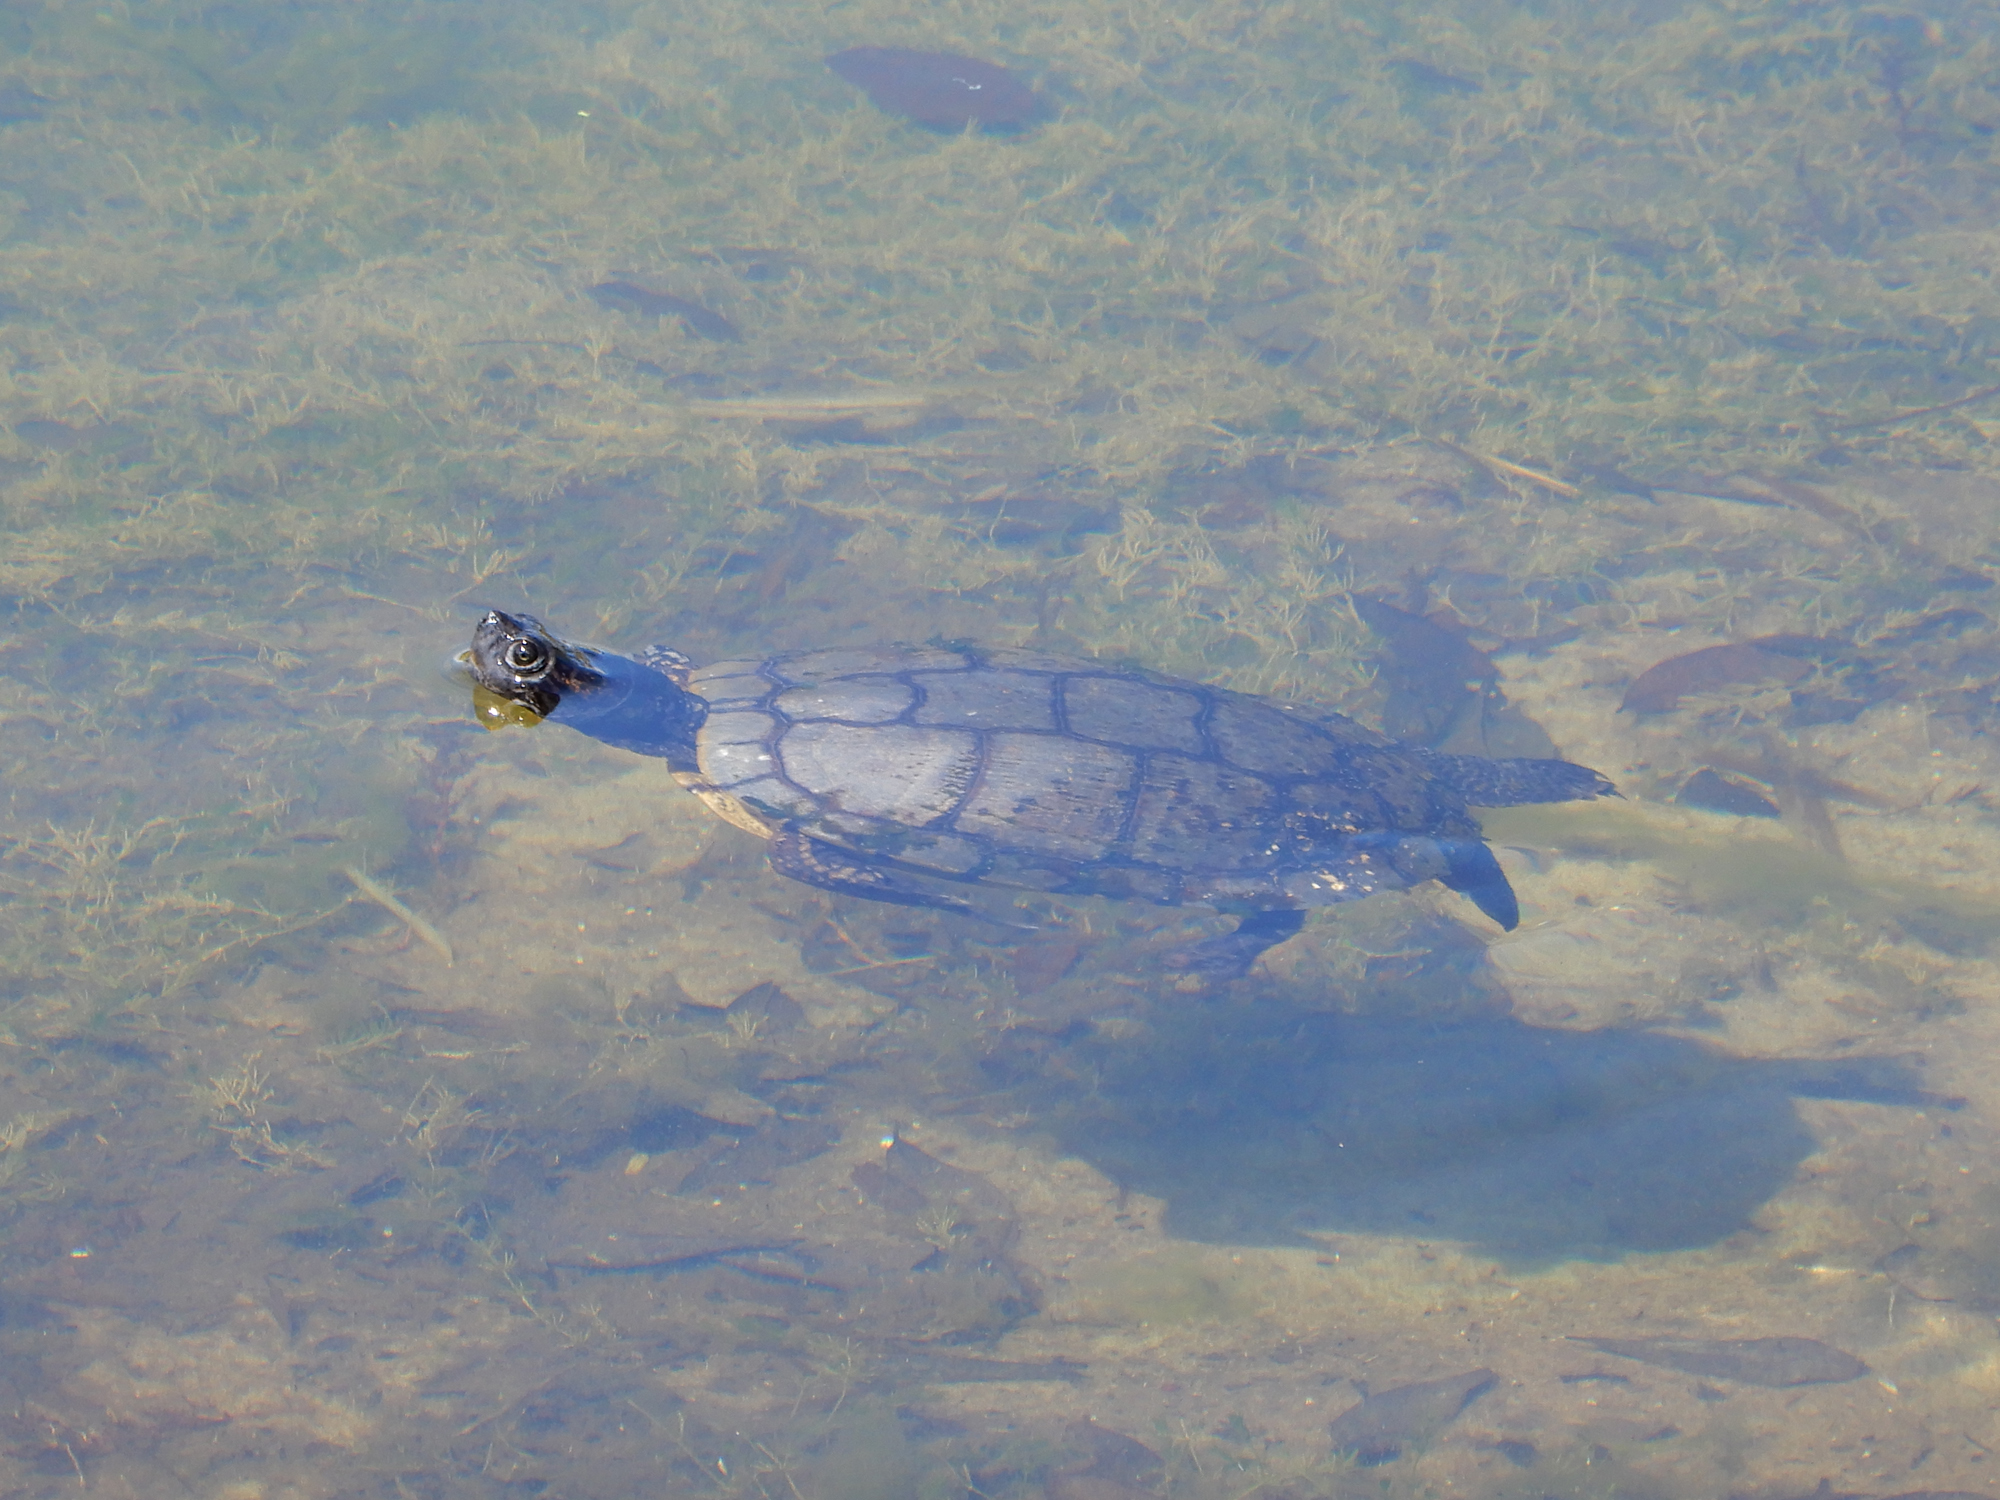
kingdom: Animalia
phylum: Chordata
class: Testudines
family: Emydidae
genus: Trachemys
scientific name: Trachemys scripta
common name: Slider
